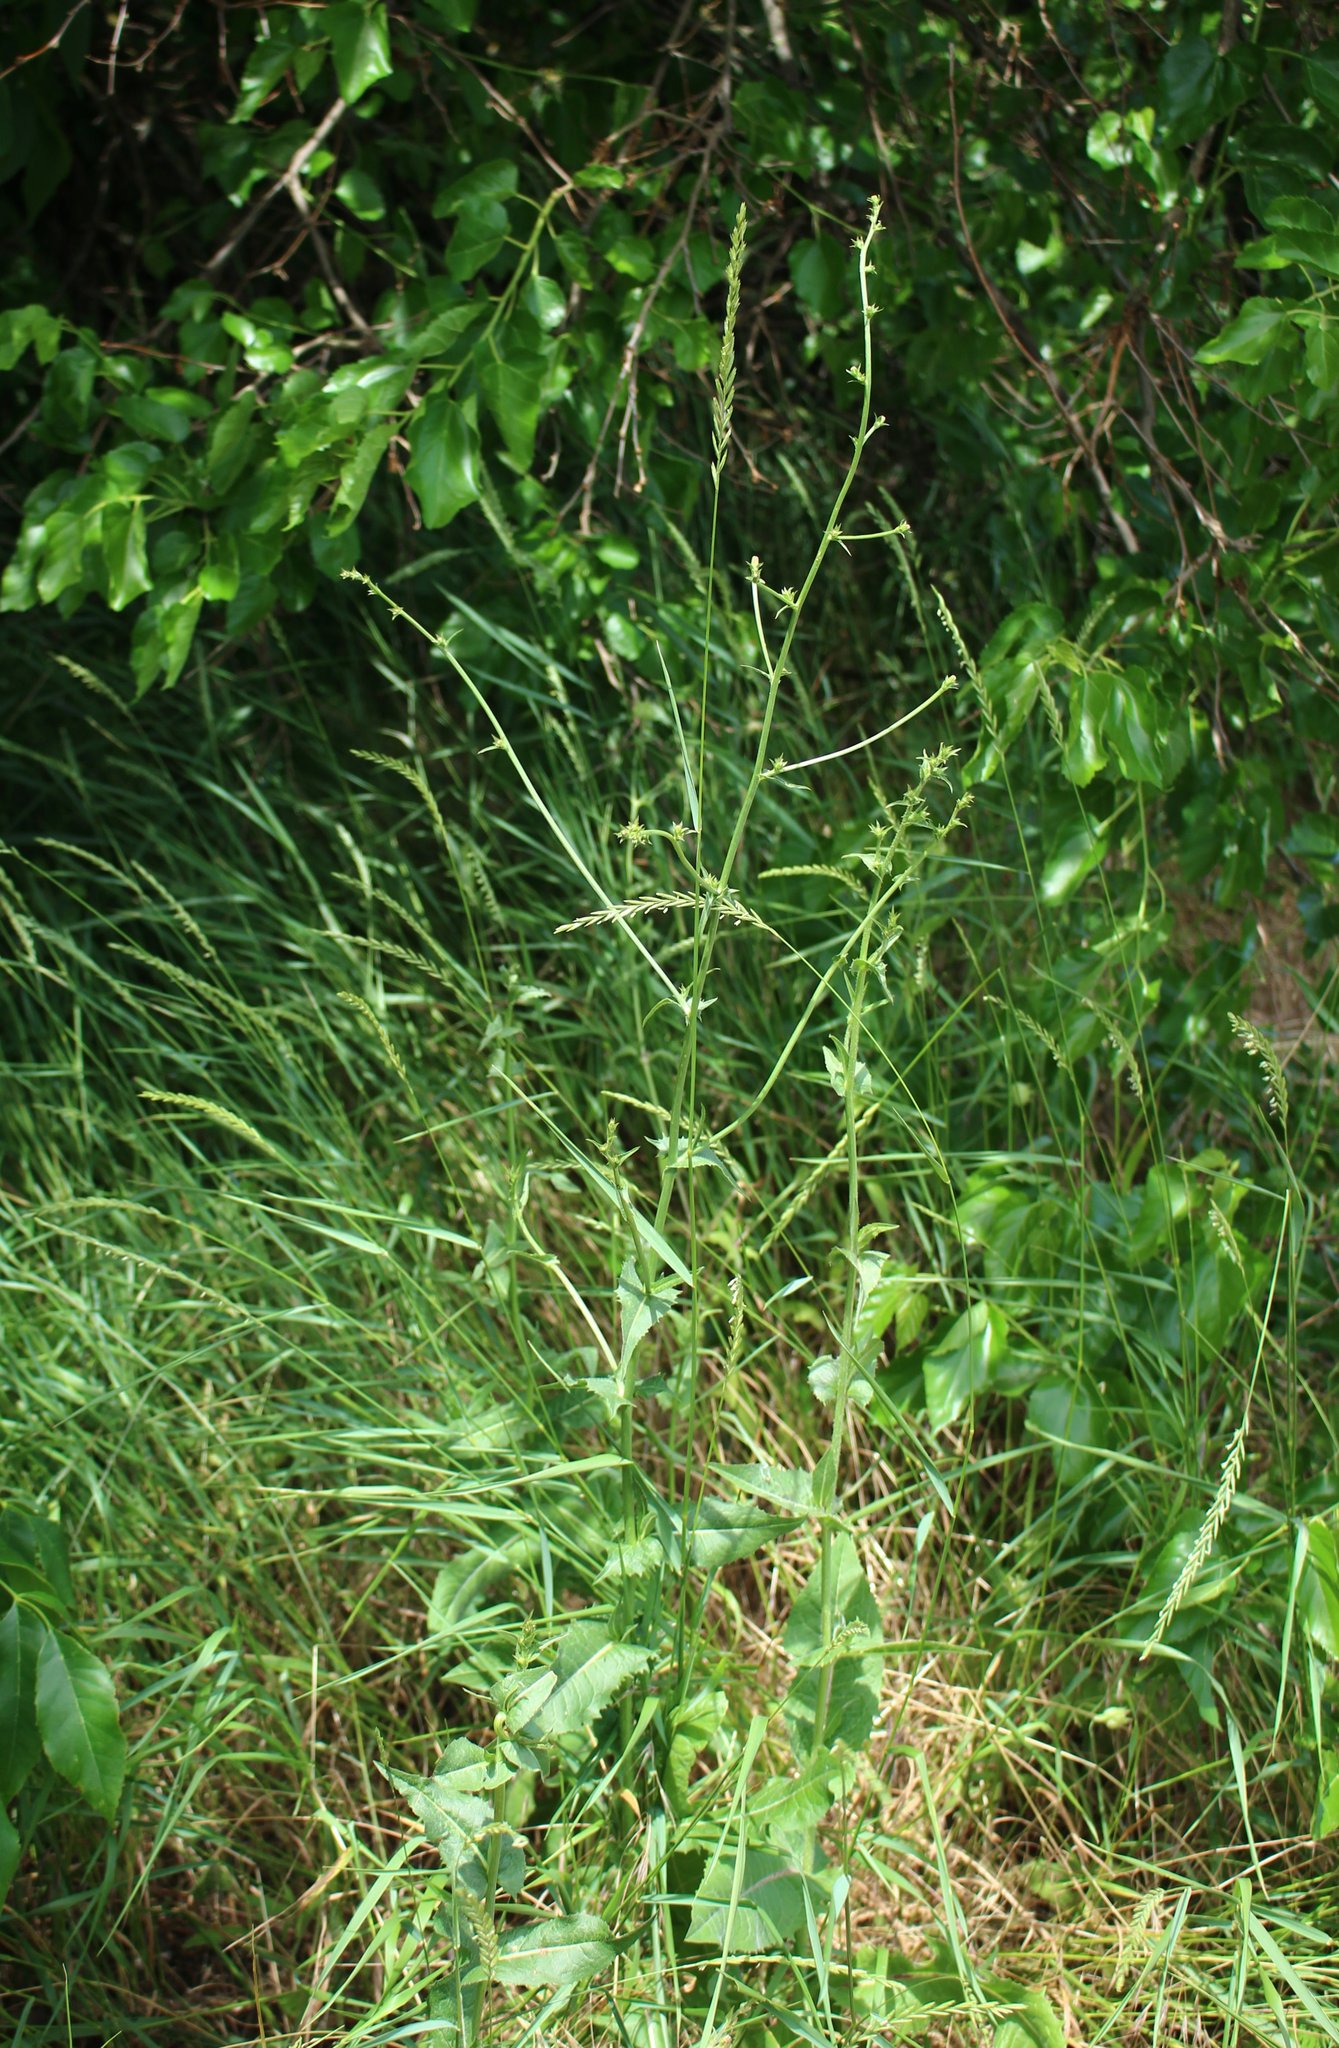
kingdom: Plantae
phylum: Tracheophyta
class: Magnoliopsida
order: Asterales
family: Asteraceae
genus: Cichorium
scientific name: Cichorium intybus
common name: Chicory
